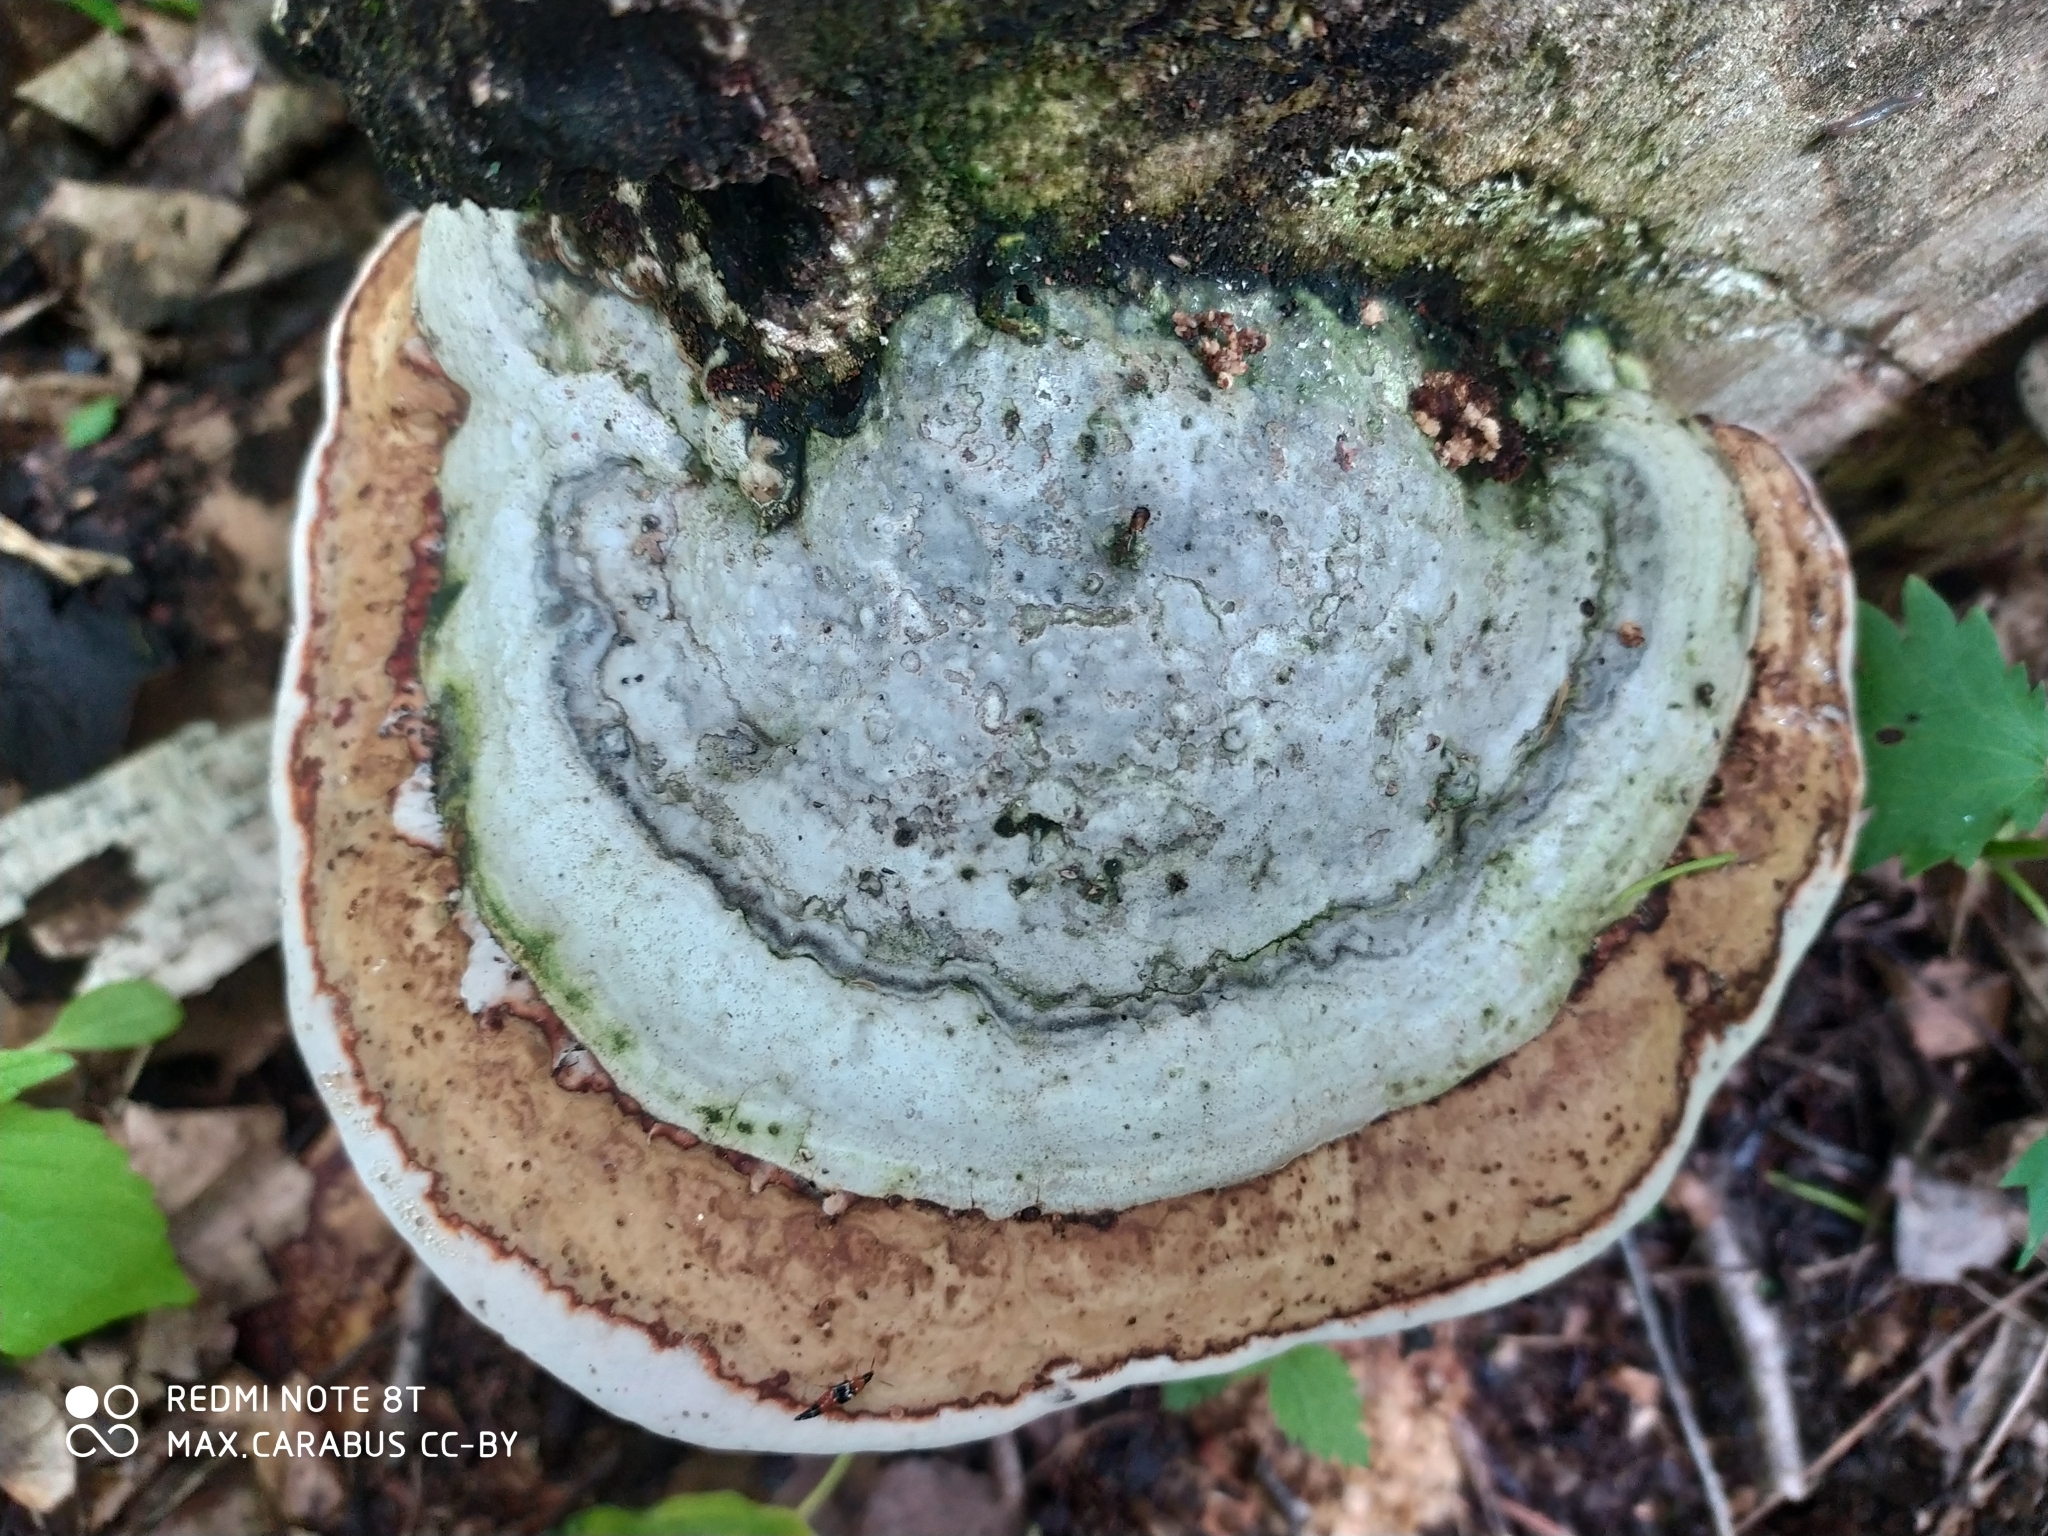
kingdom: Fungi
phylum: Basidiomycota
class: Agaricomycetes
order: Polyporales
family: Polyporaceae
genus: Fomes
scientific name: Fomes fomentarius
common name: Hoof fungus
